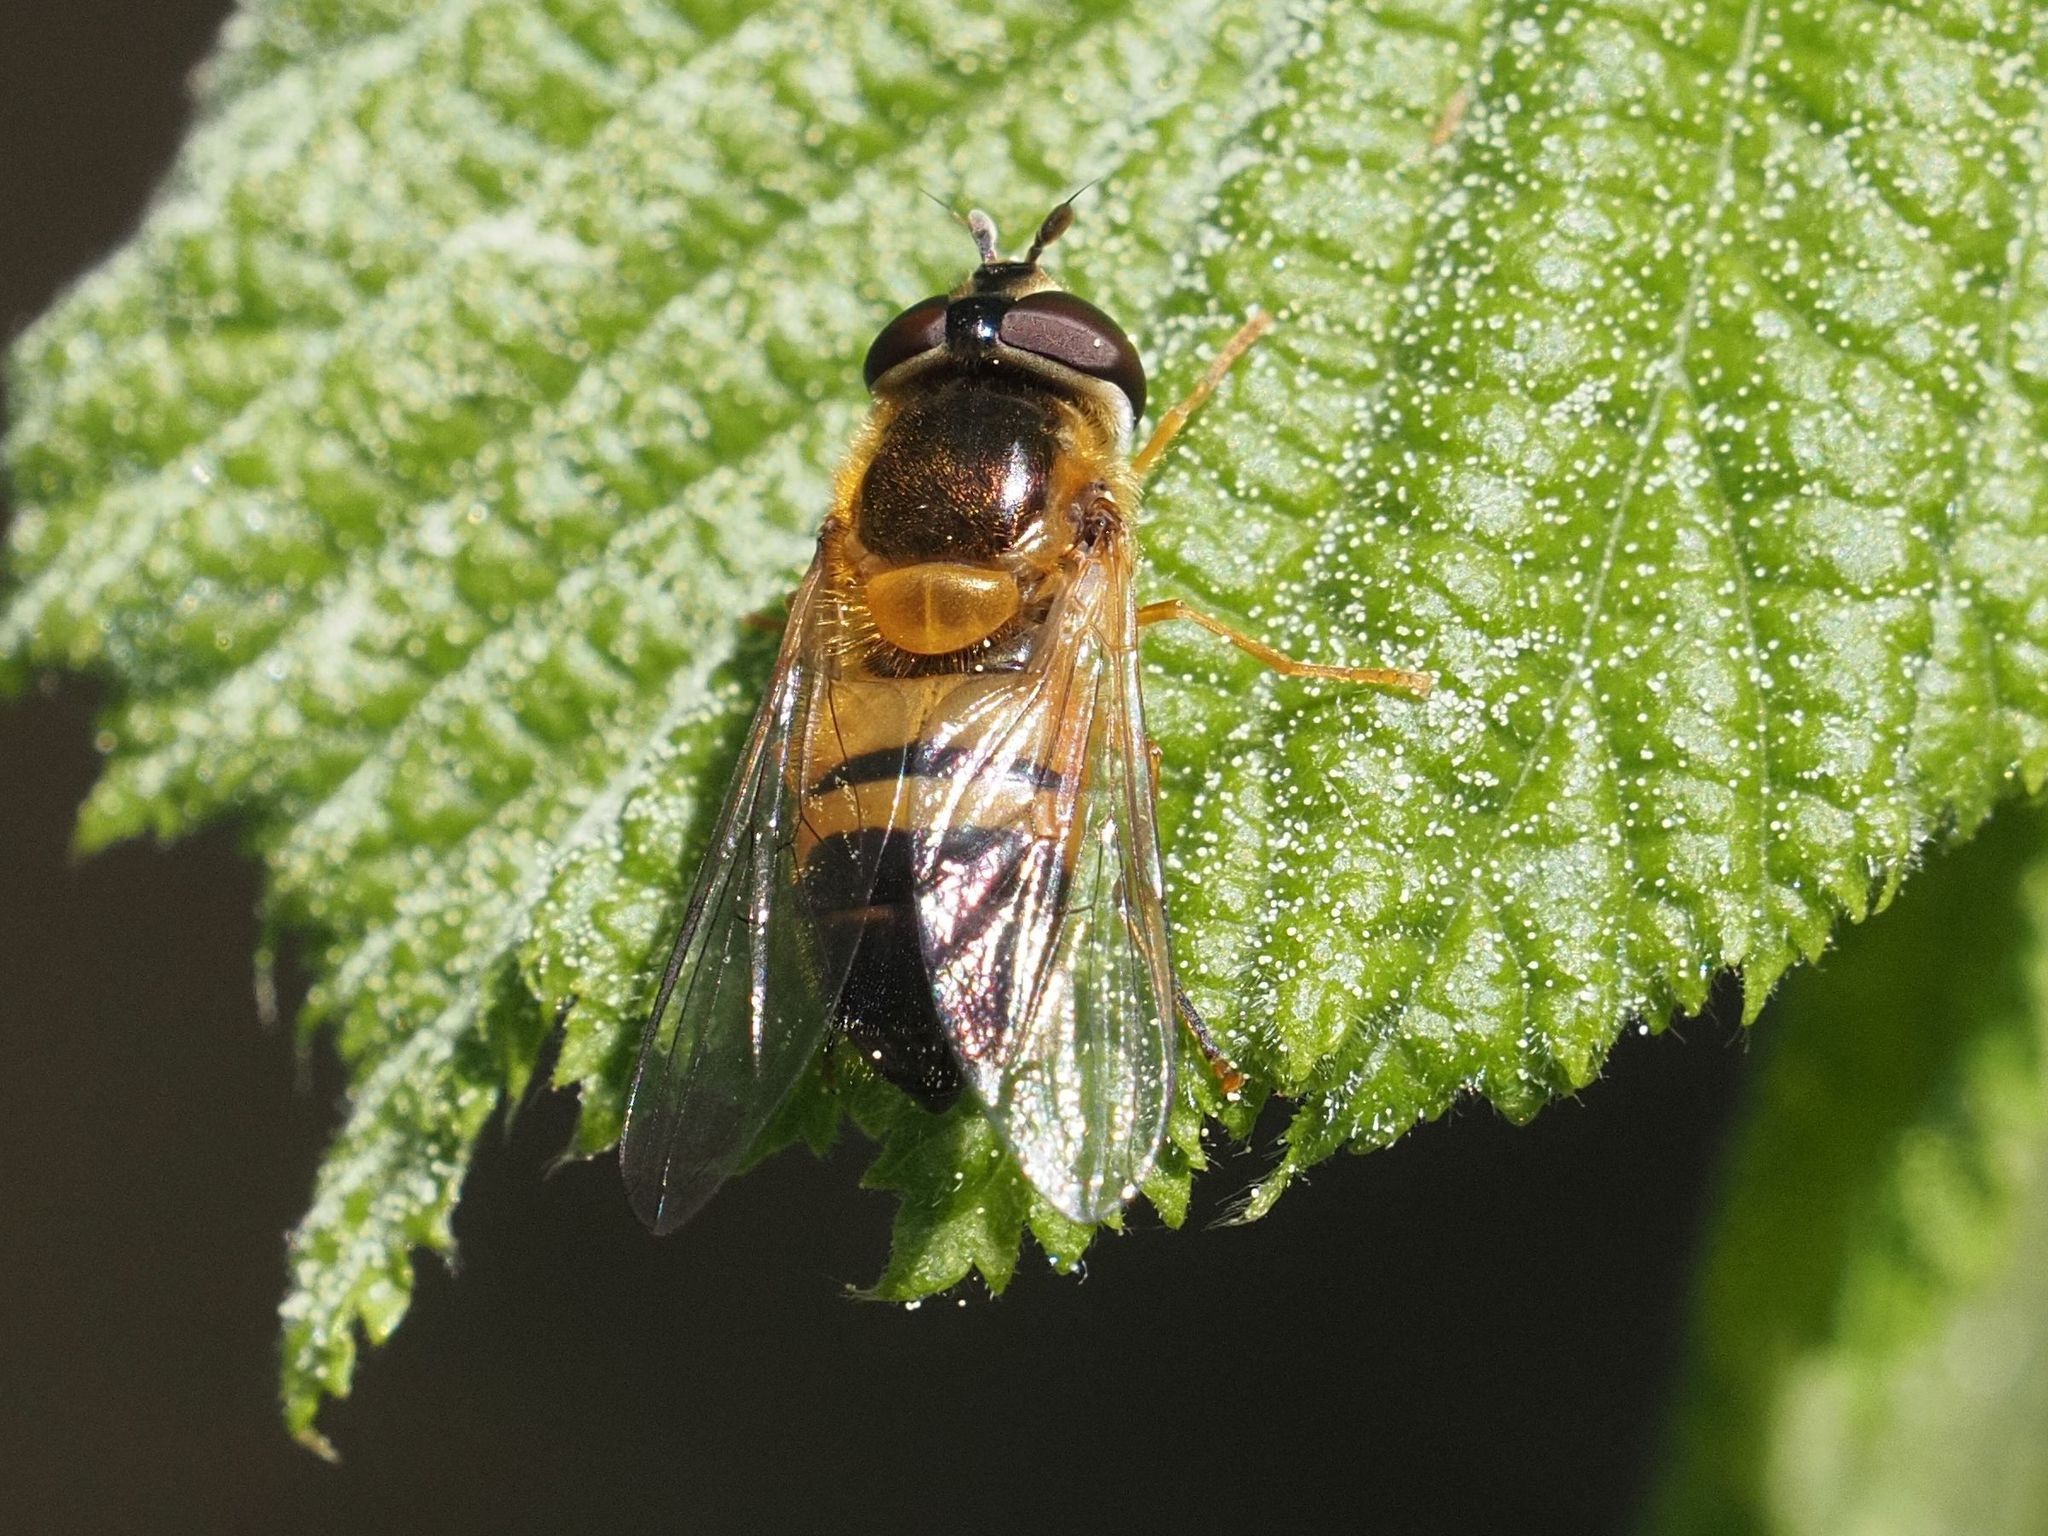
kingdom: Animalia
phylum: Arthropoda
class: Insecta
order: Diptera
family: Syrphidae
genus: Epistrophe
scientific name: Epistrophe eligans
